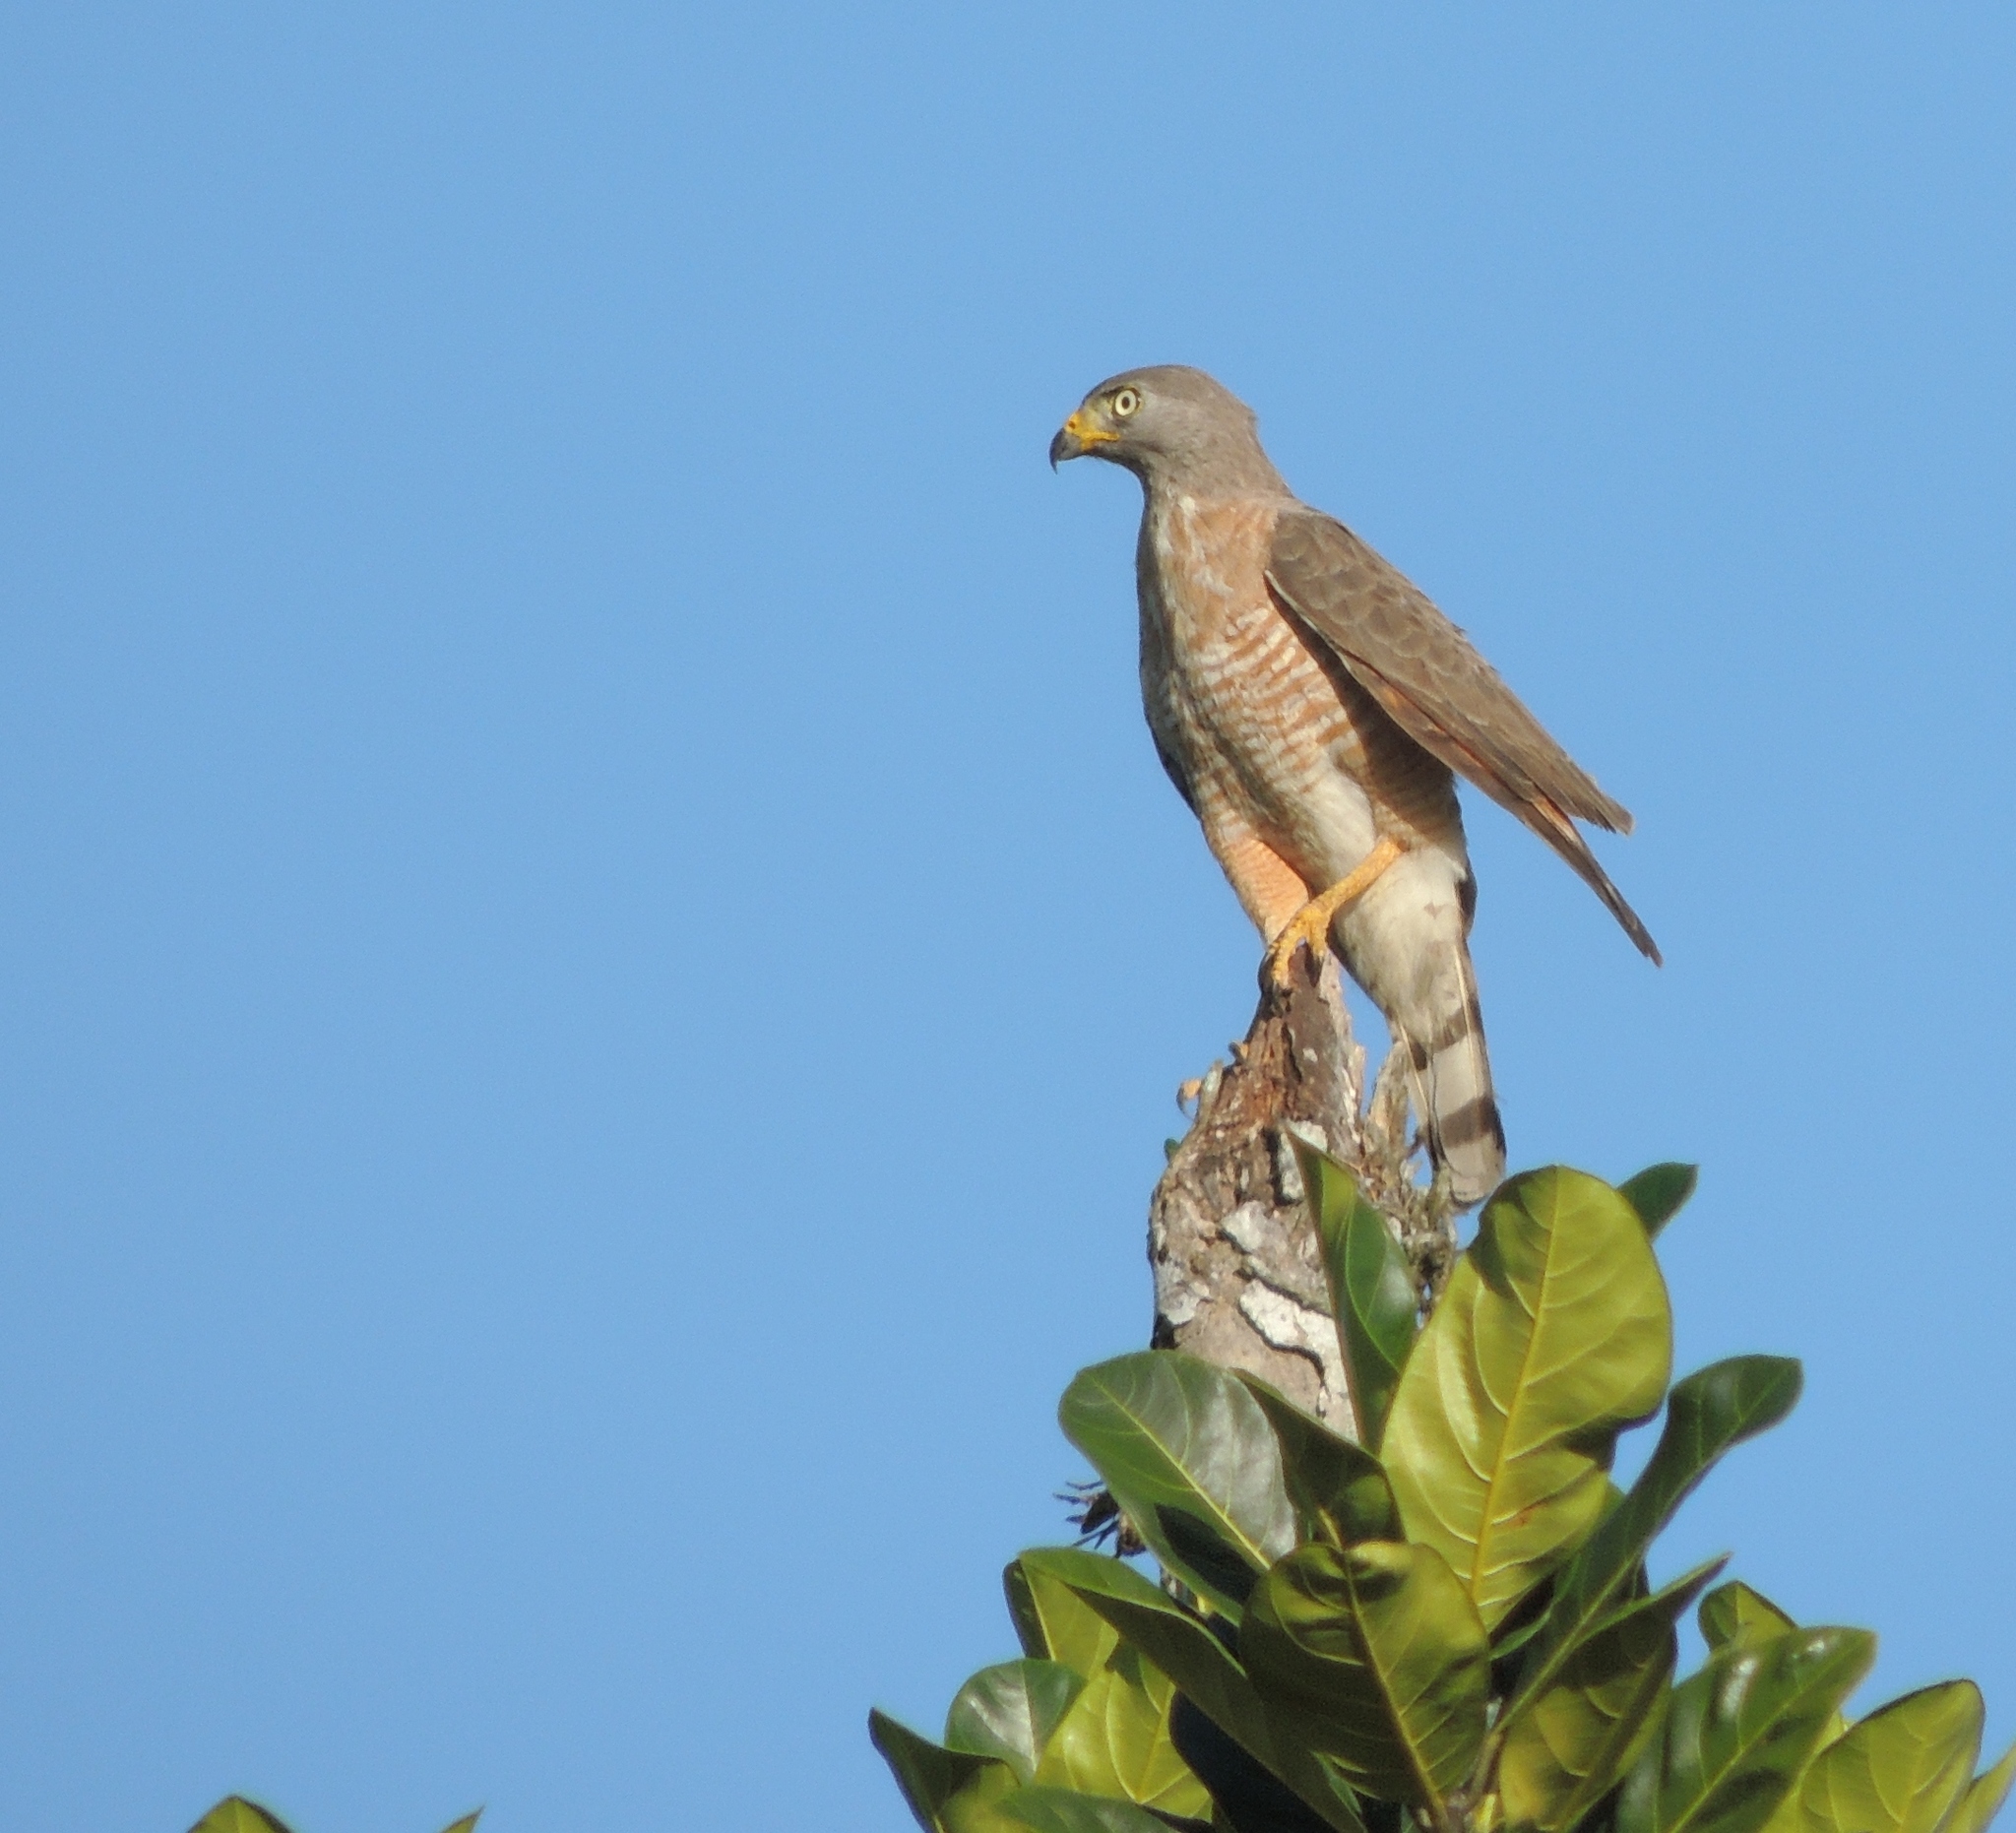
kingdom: Animalia
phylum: Chordata
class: Aves
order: Accipitriformes
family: Accipitridae
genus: Rupornis
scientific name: Rupornis magnirostris
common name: Roadside hawk
